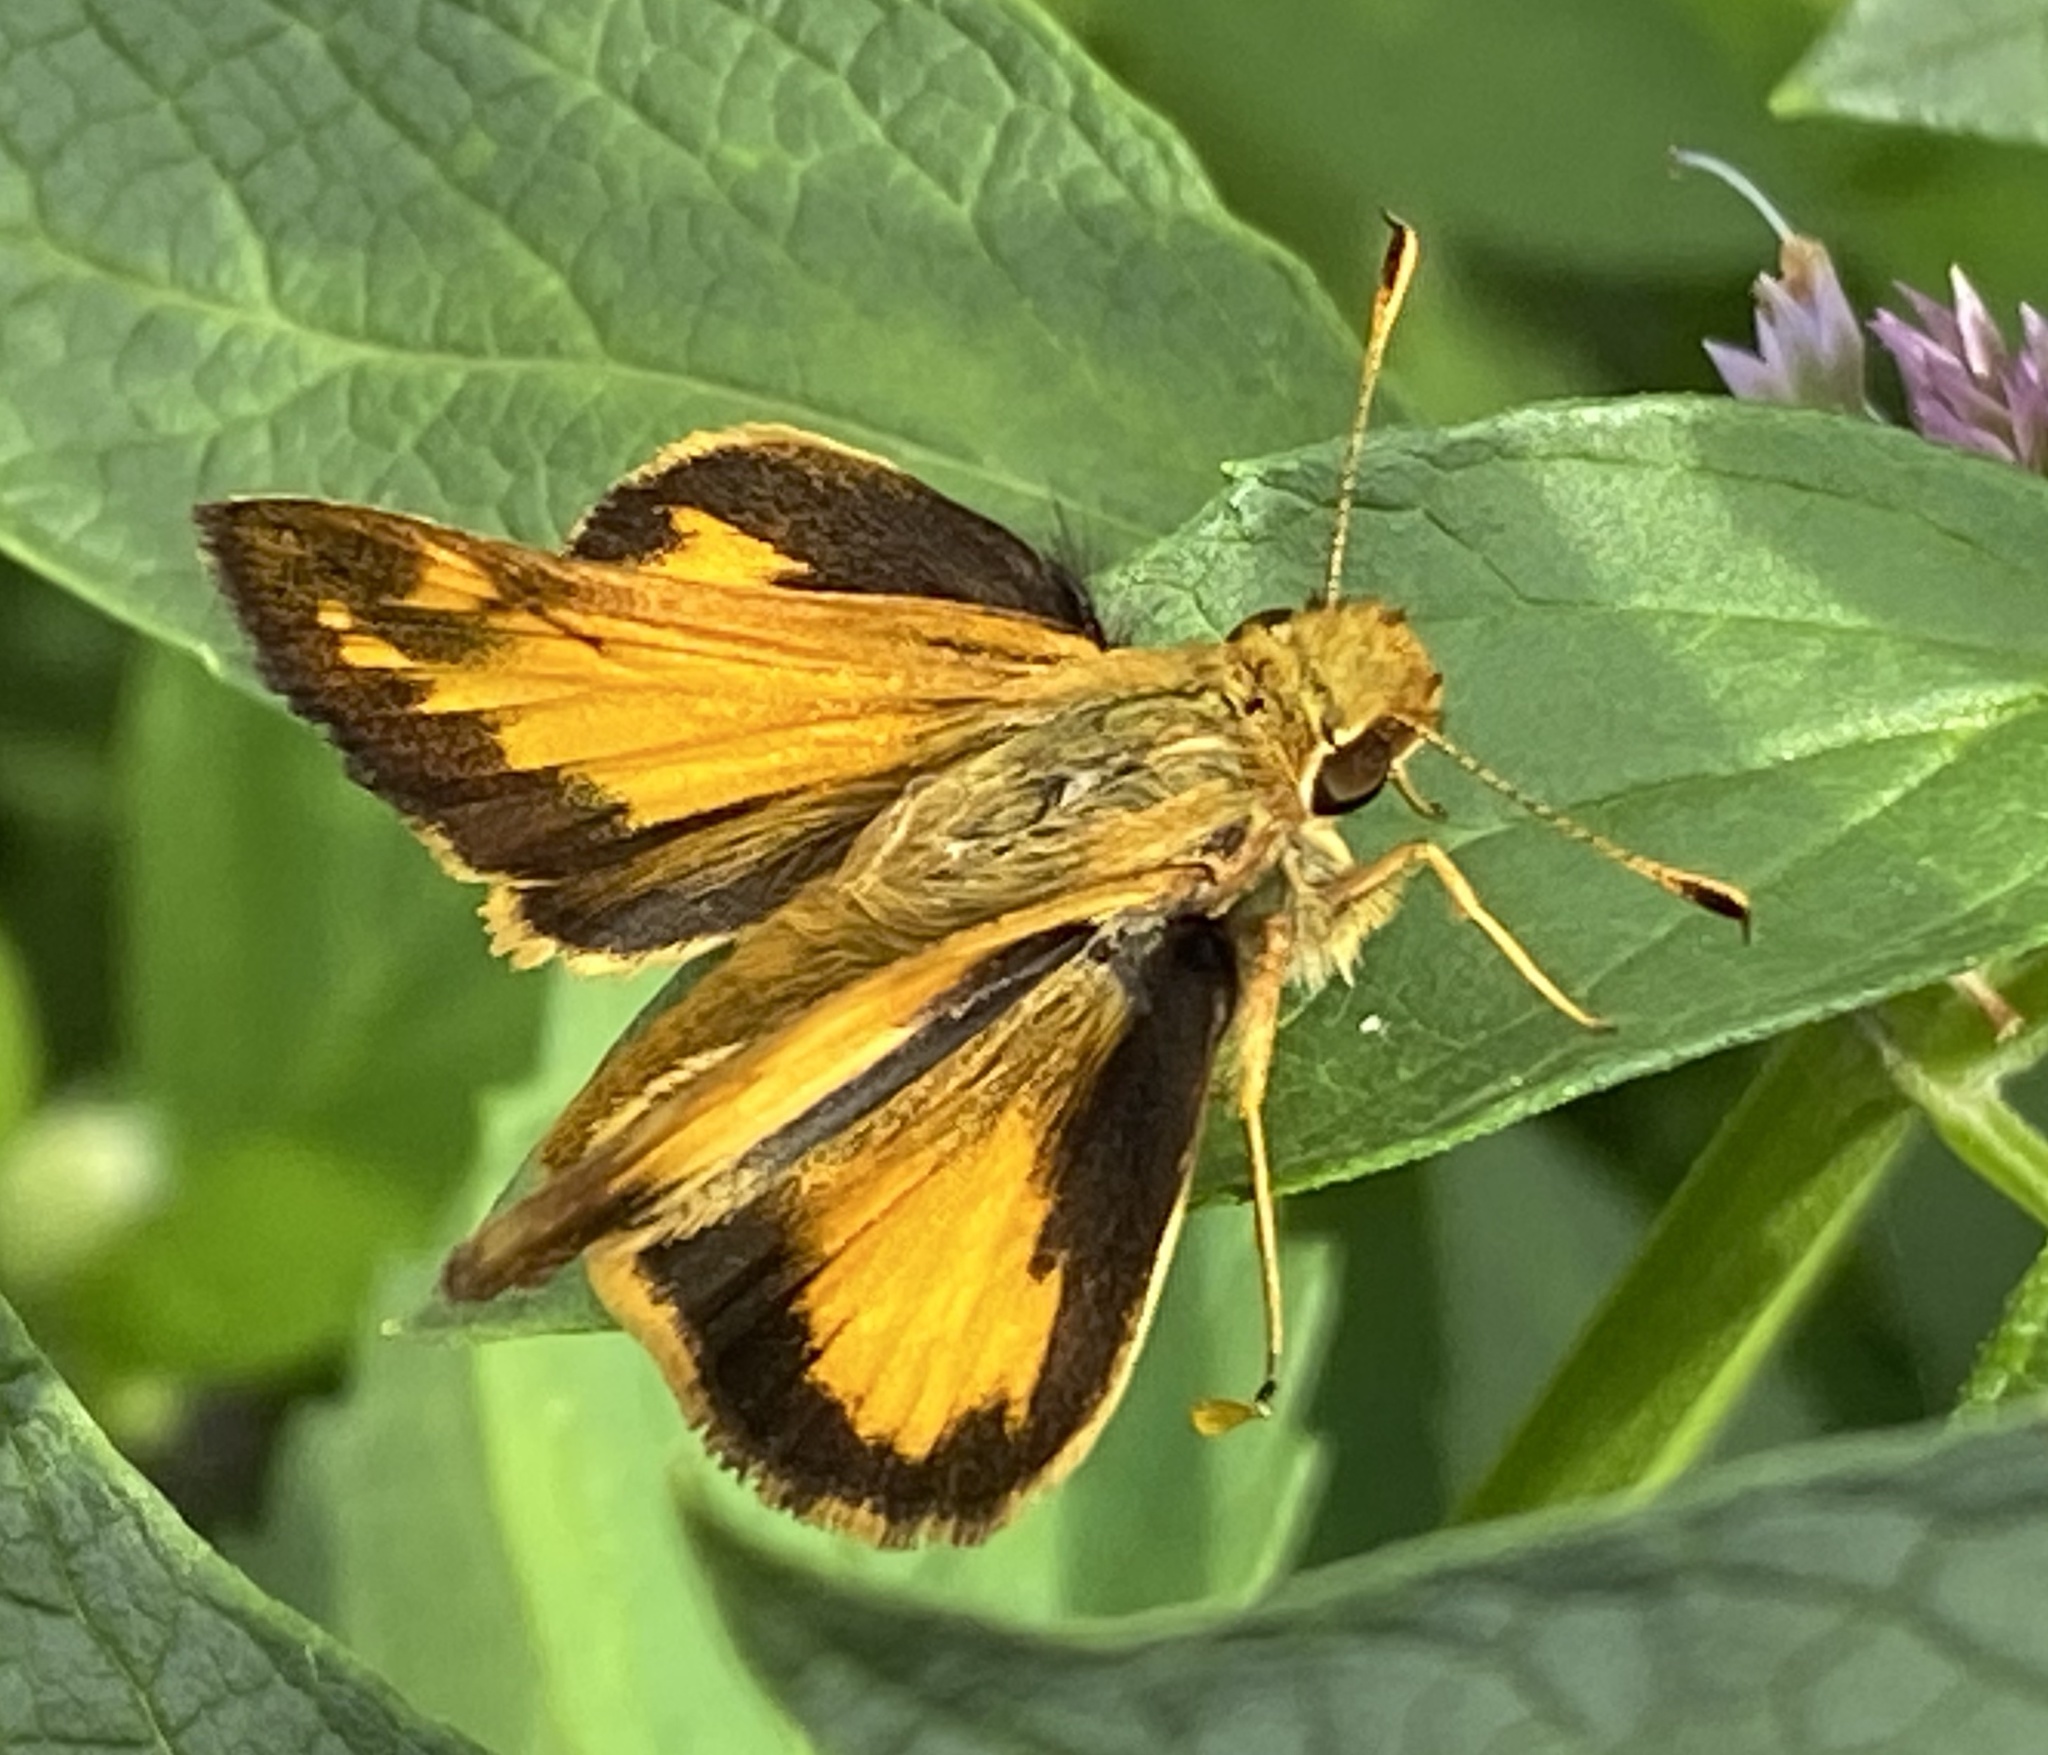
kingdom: Animalia
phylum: Arthropoda
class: Insecta
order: Lepidoptera
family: Hesperiidae
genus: Lon
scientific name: Lon zabulon
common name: Zabulon skipper
